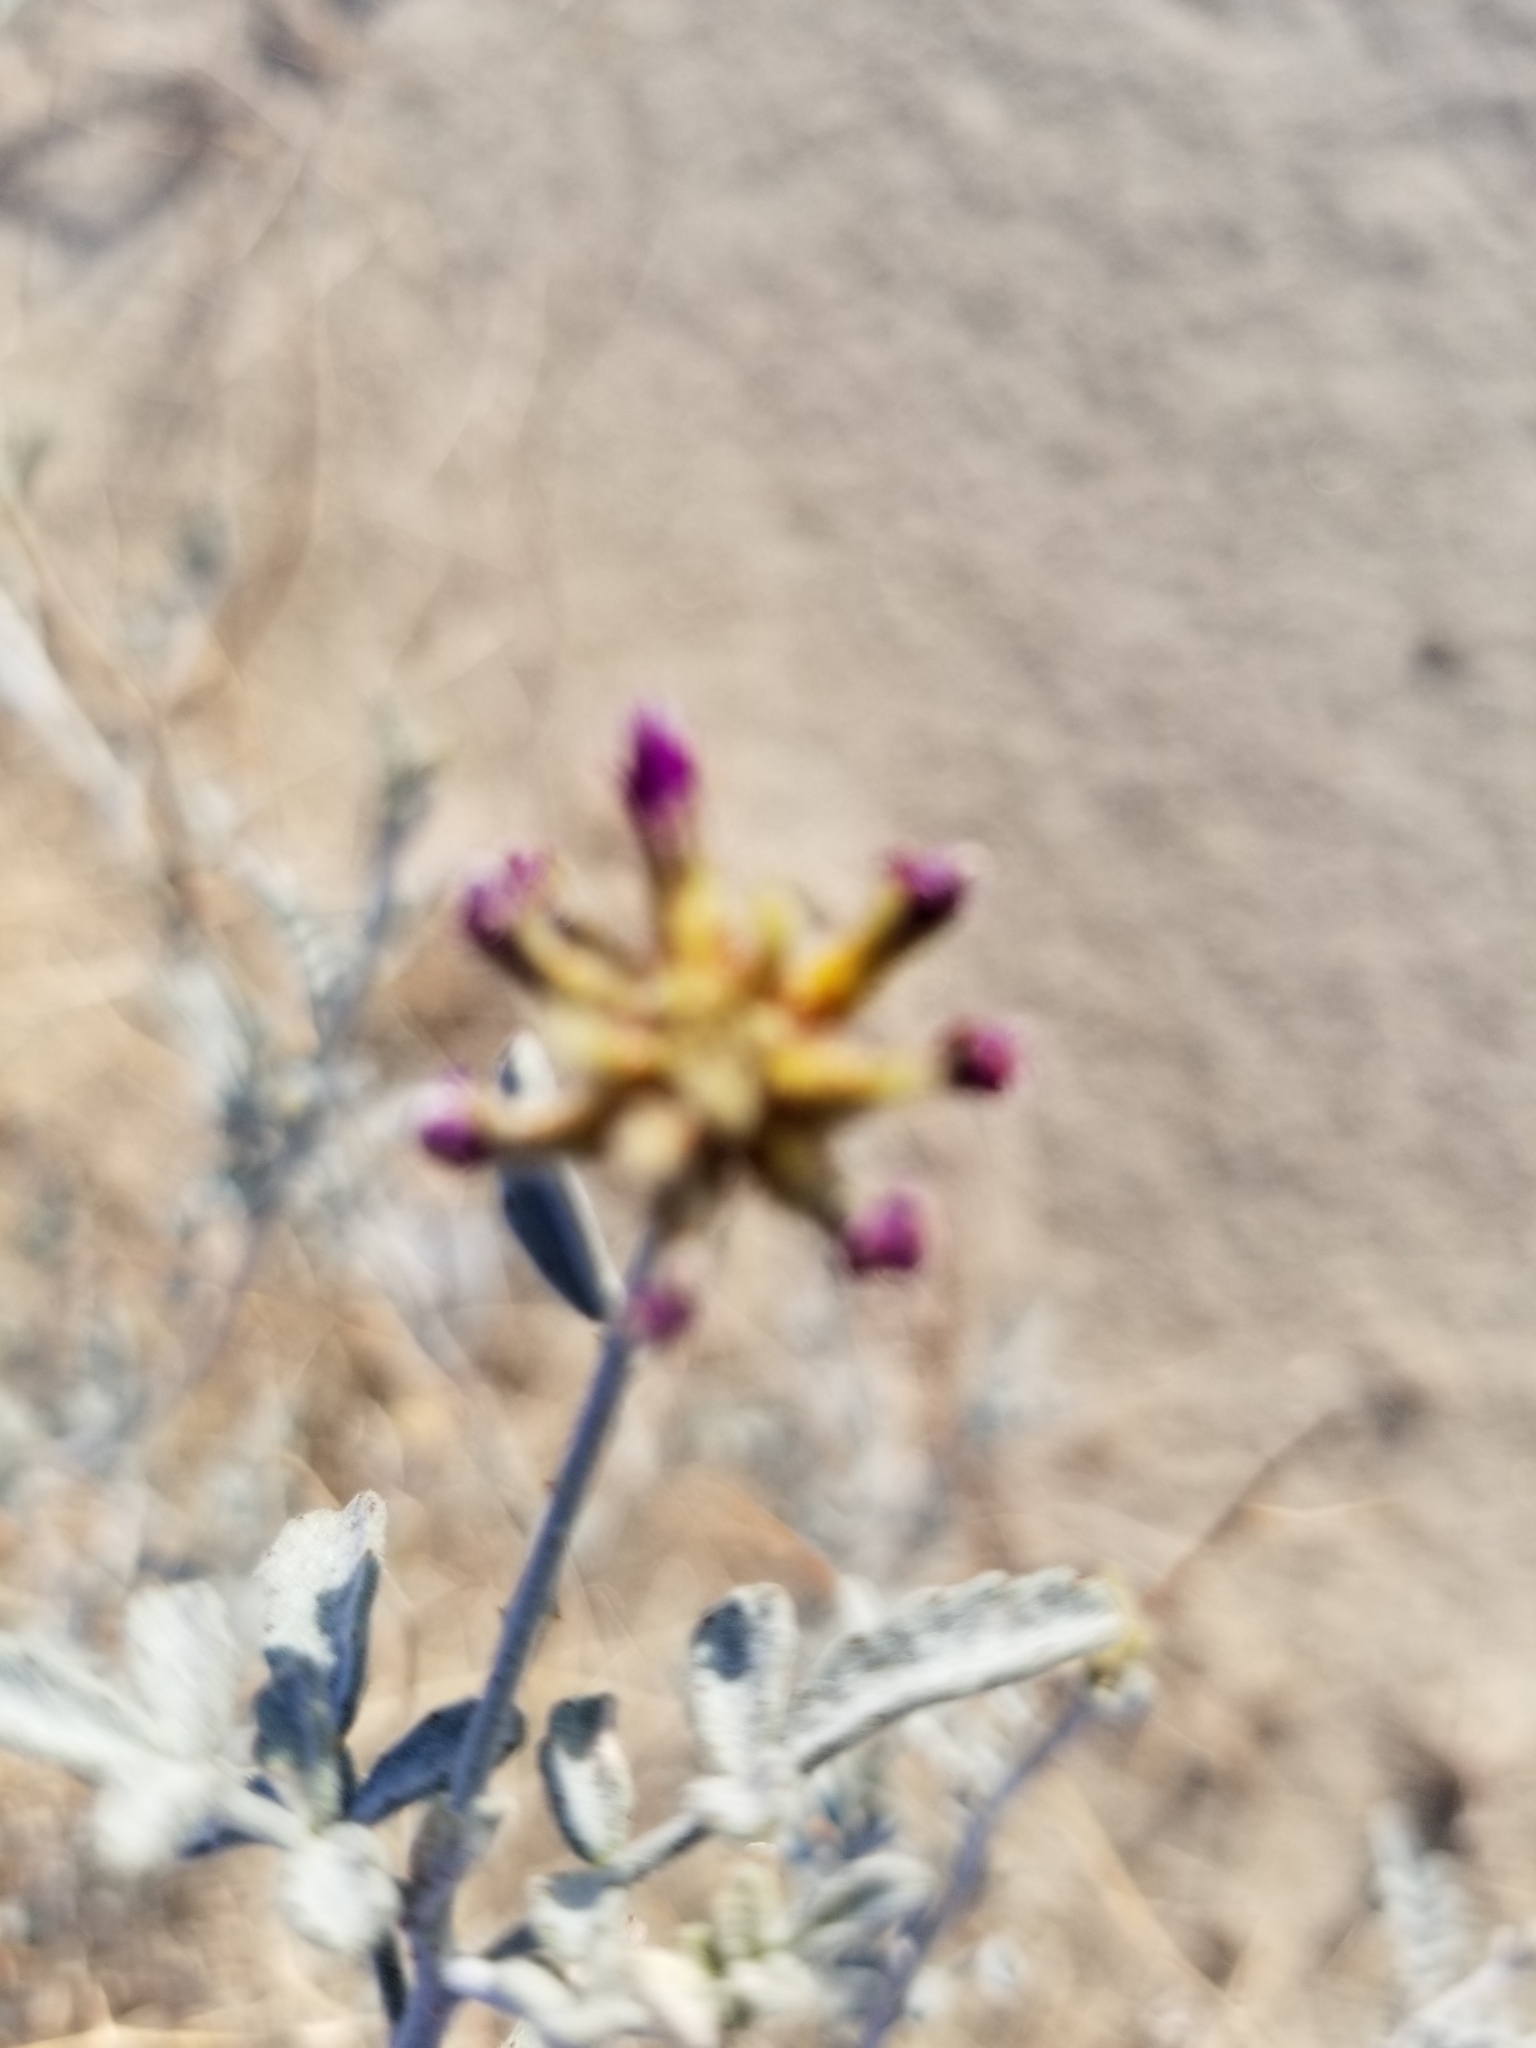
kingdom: Plantae
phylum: Tracheophyta
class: Magnoliopsida
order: Fabales
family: Fabaceae
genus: Psorothamnus
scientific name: Psorothamnus emoryi
